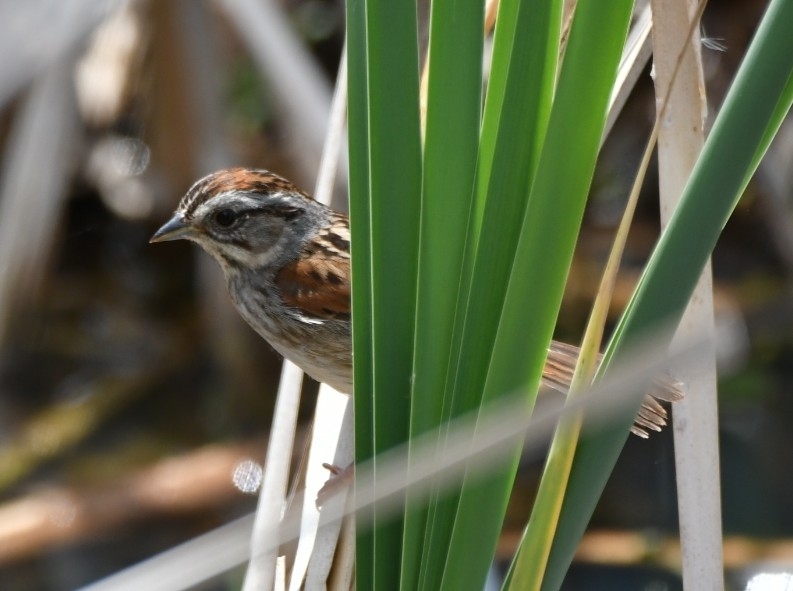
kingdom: Animalia
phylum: Chordata
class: Aves
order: Passeriformes
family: Passerellidae
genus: Melospiza
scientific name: Melospiza georgiana
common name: Swamp sparrow
